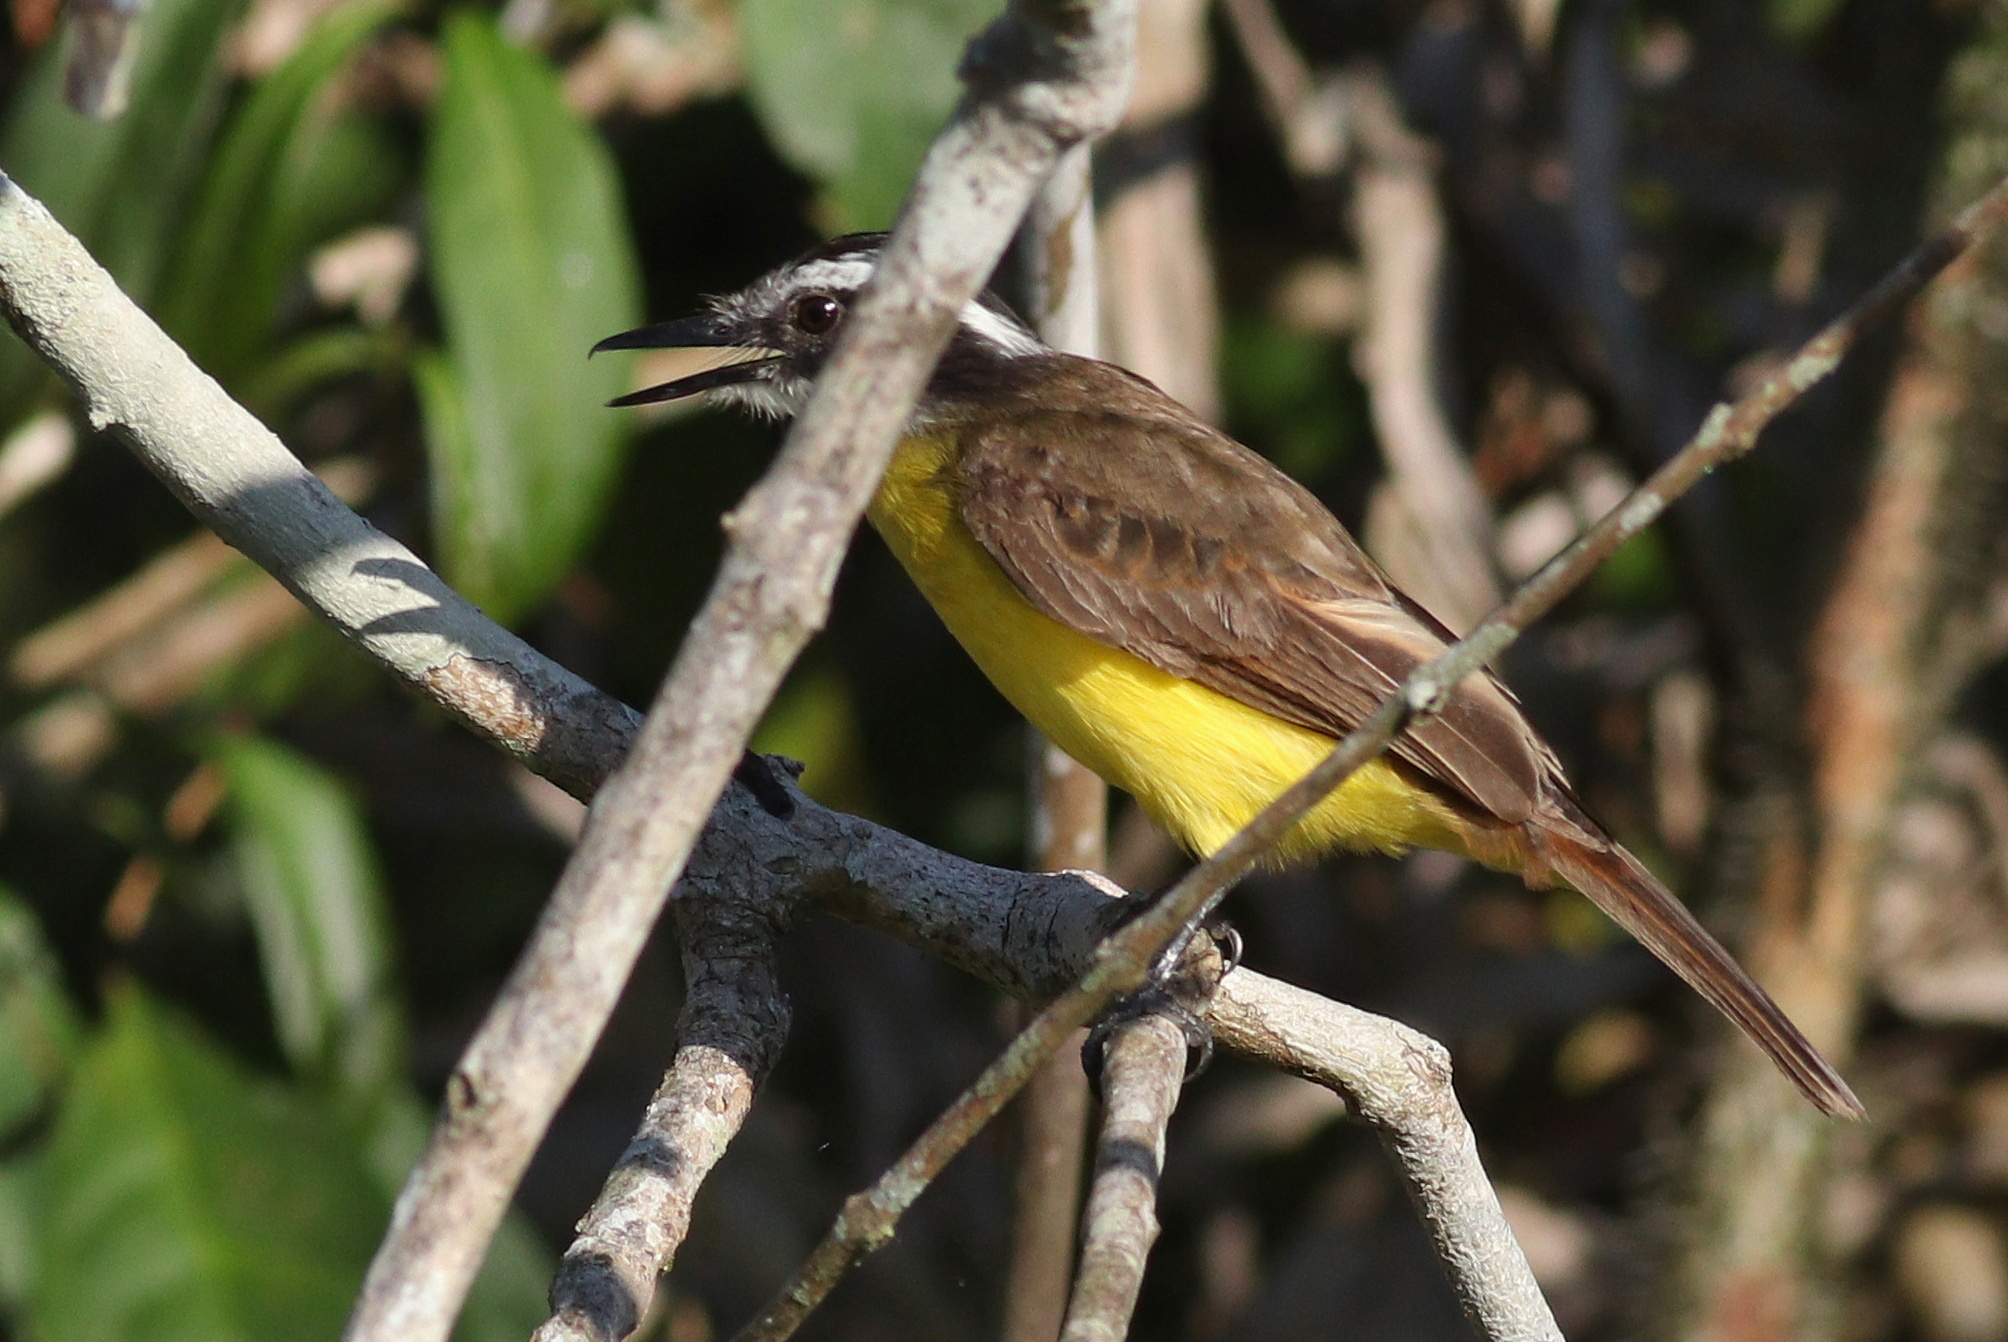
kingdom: Animalia
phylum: Chordata
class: Aves
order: Passeriformes
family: Tyrannidae
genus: Pitangus
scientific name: Pitangus lictor
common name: Lesser kiskadee
